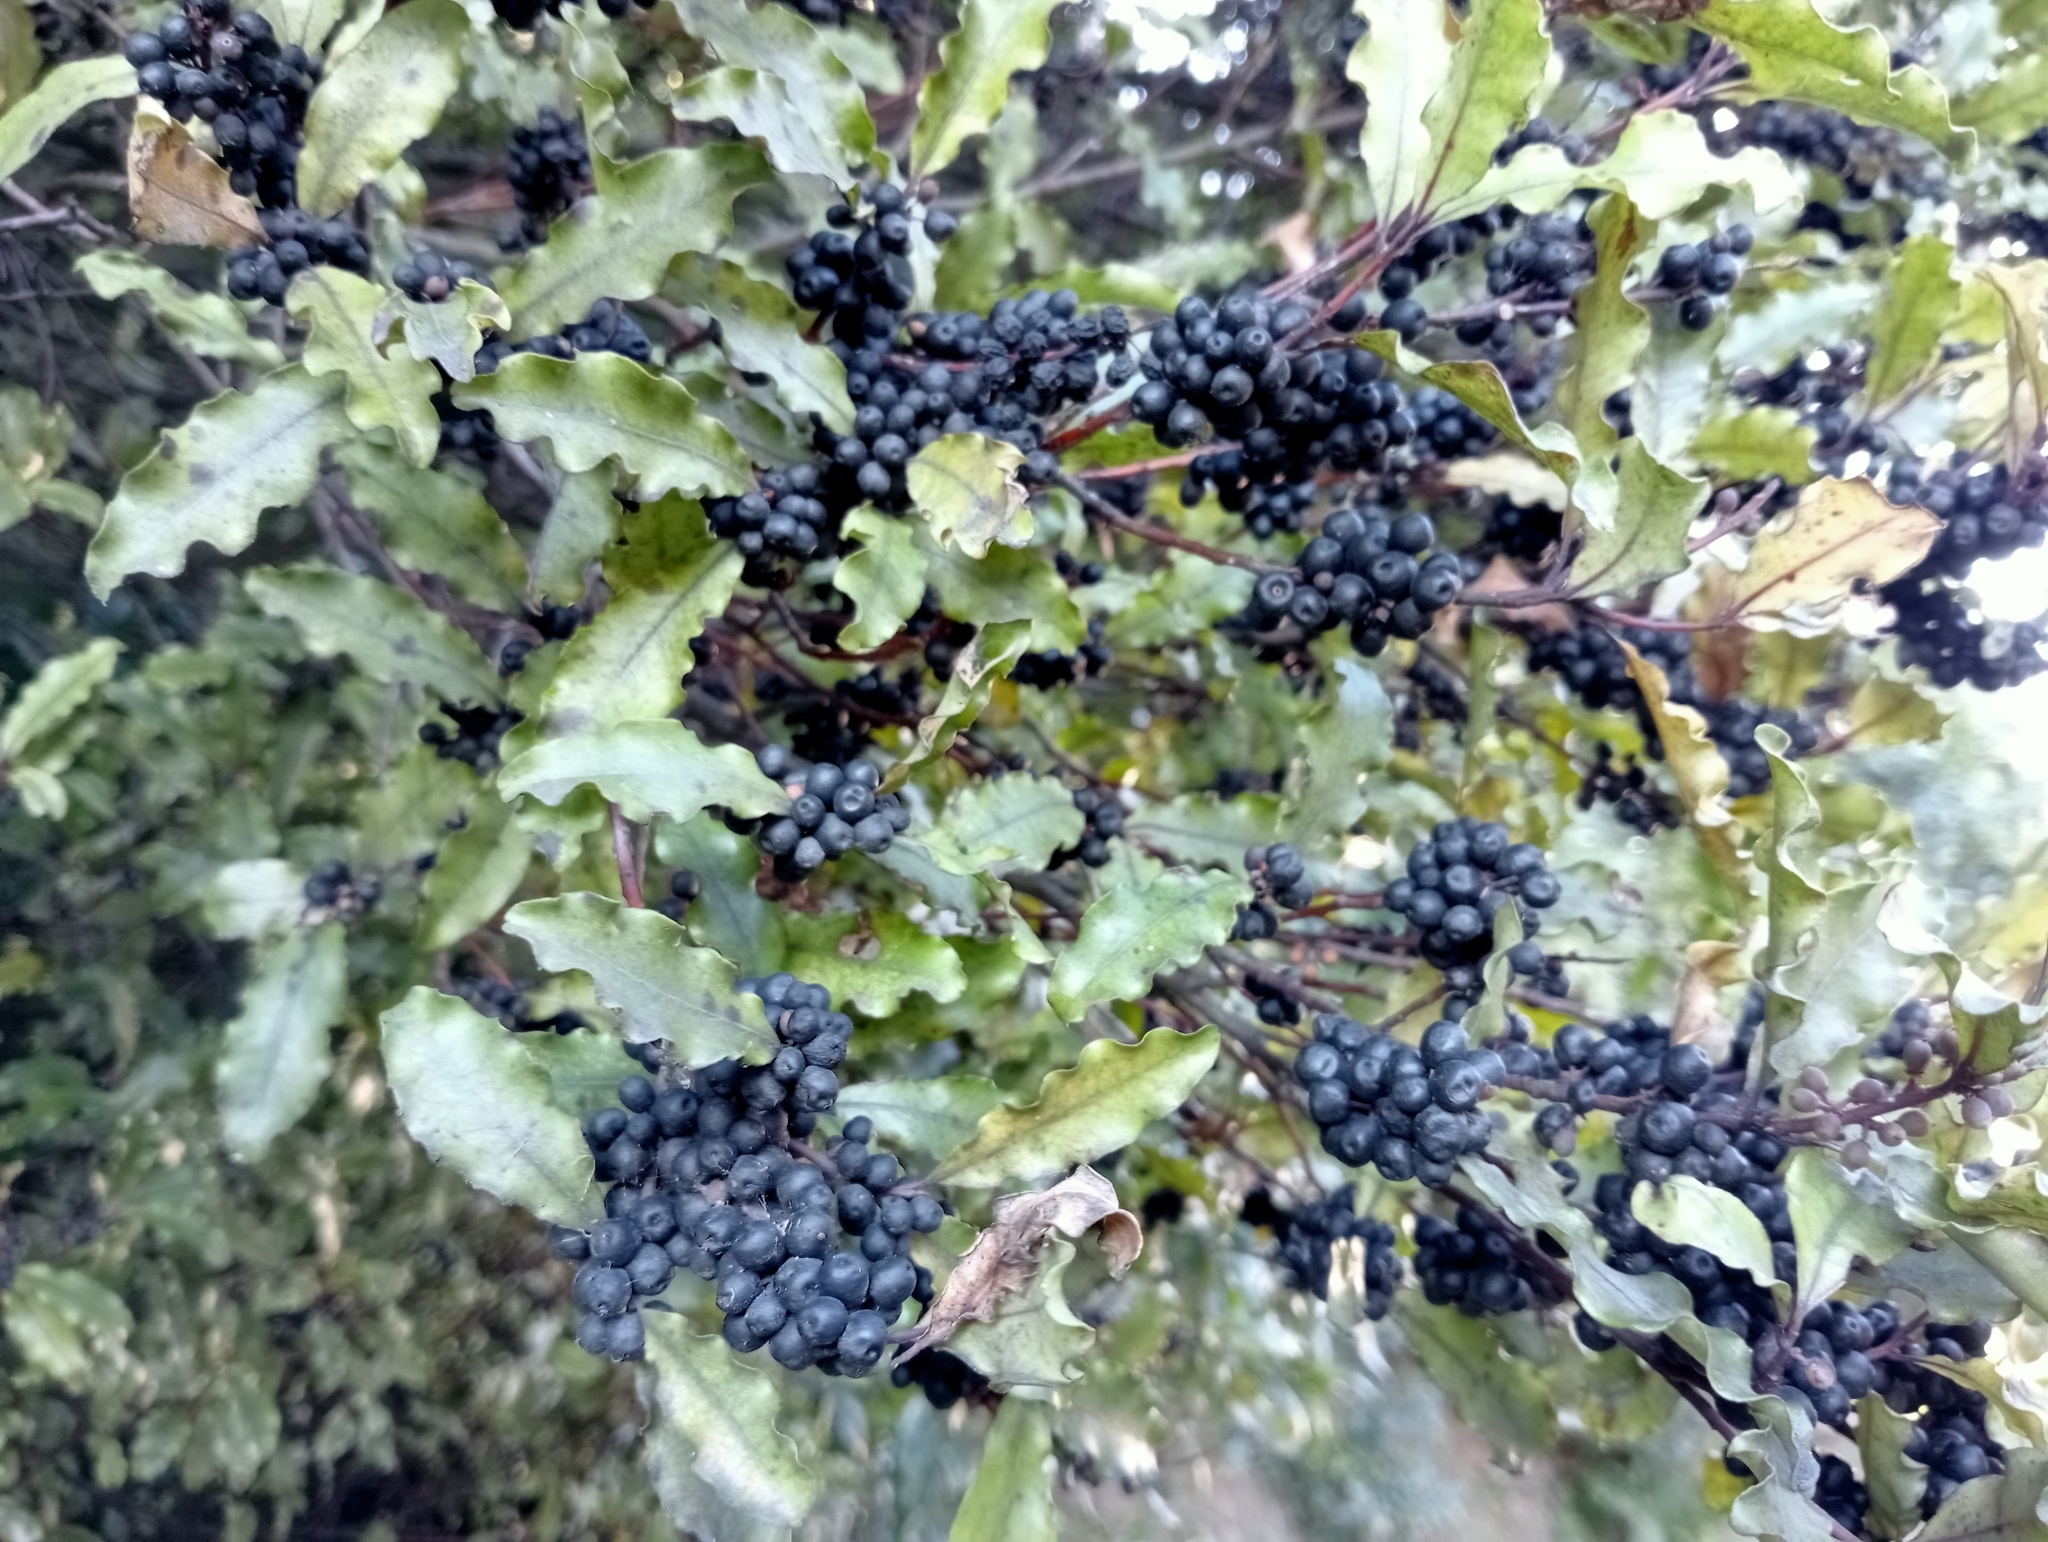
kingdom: Plantae
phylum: Tracheophyta
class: Magnoliopsida
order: Ericales
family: Primulaceae
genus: Myrsine
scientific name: Myrsine australis
